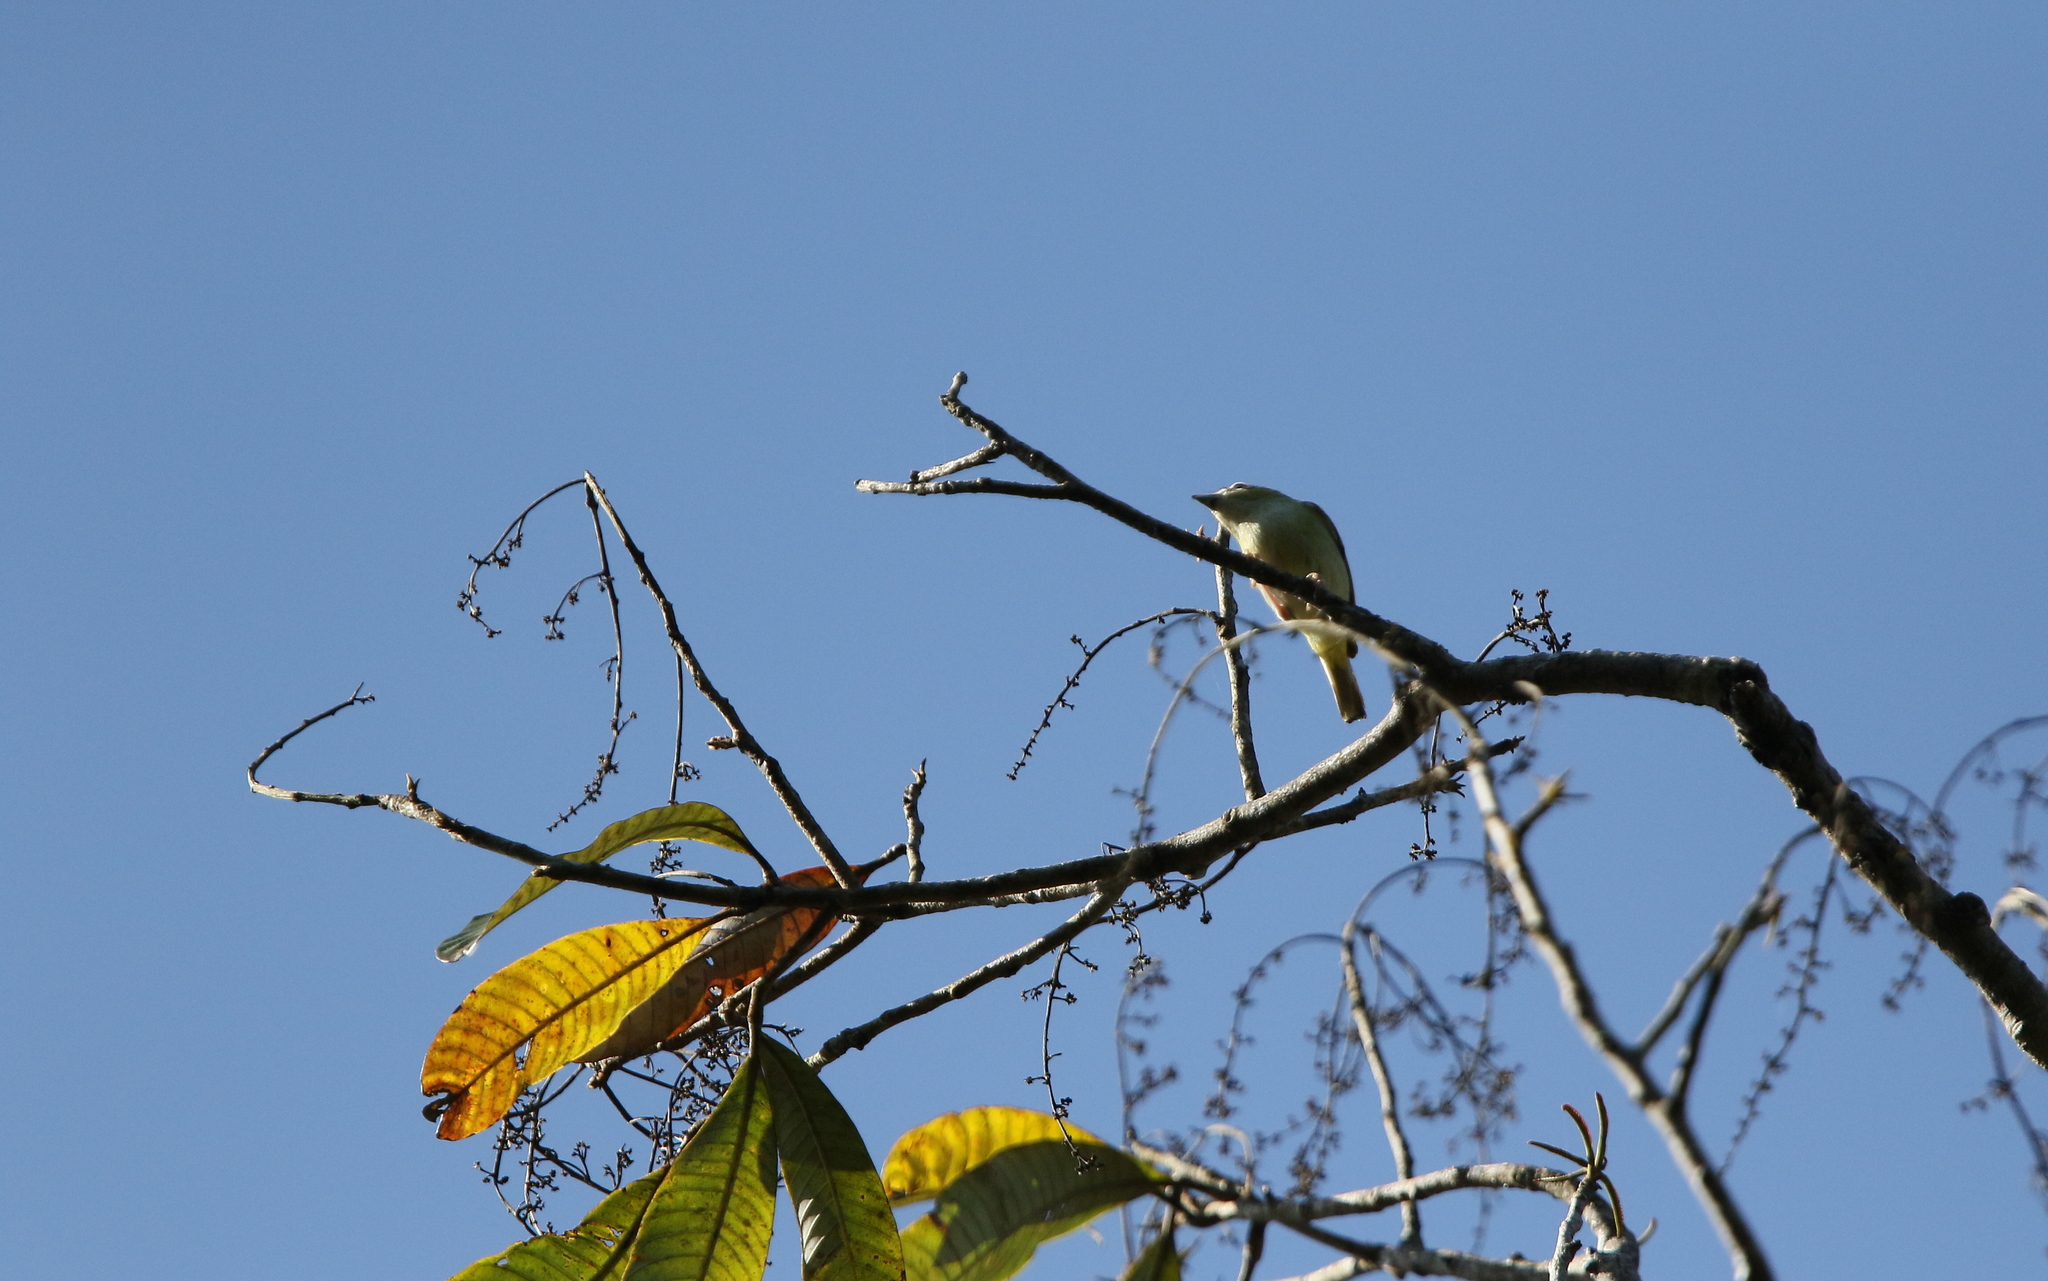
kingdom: Animalia
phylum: Chordata
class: Aves
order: Passeriformes
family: Vireonidae
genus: Pteruthius
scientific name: Pteruthius intermedius
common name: Clicking shrike-babbler
